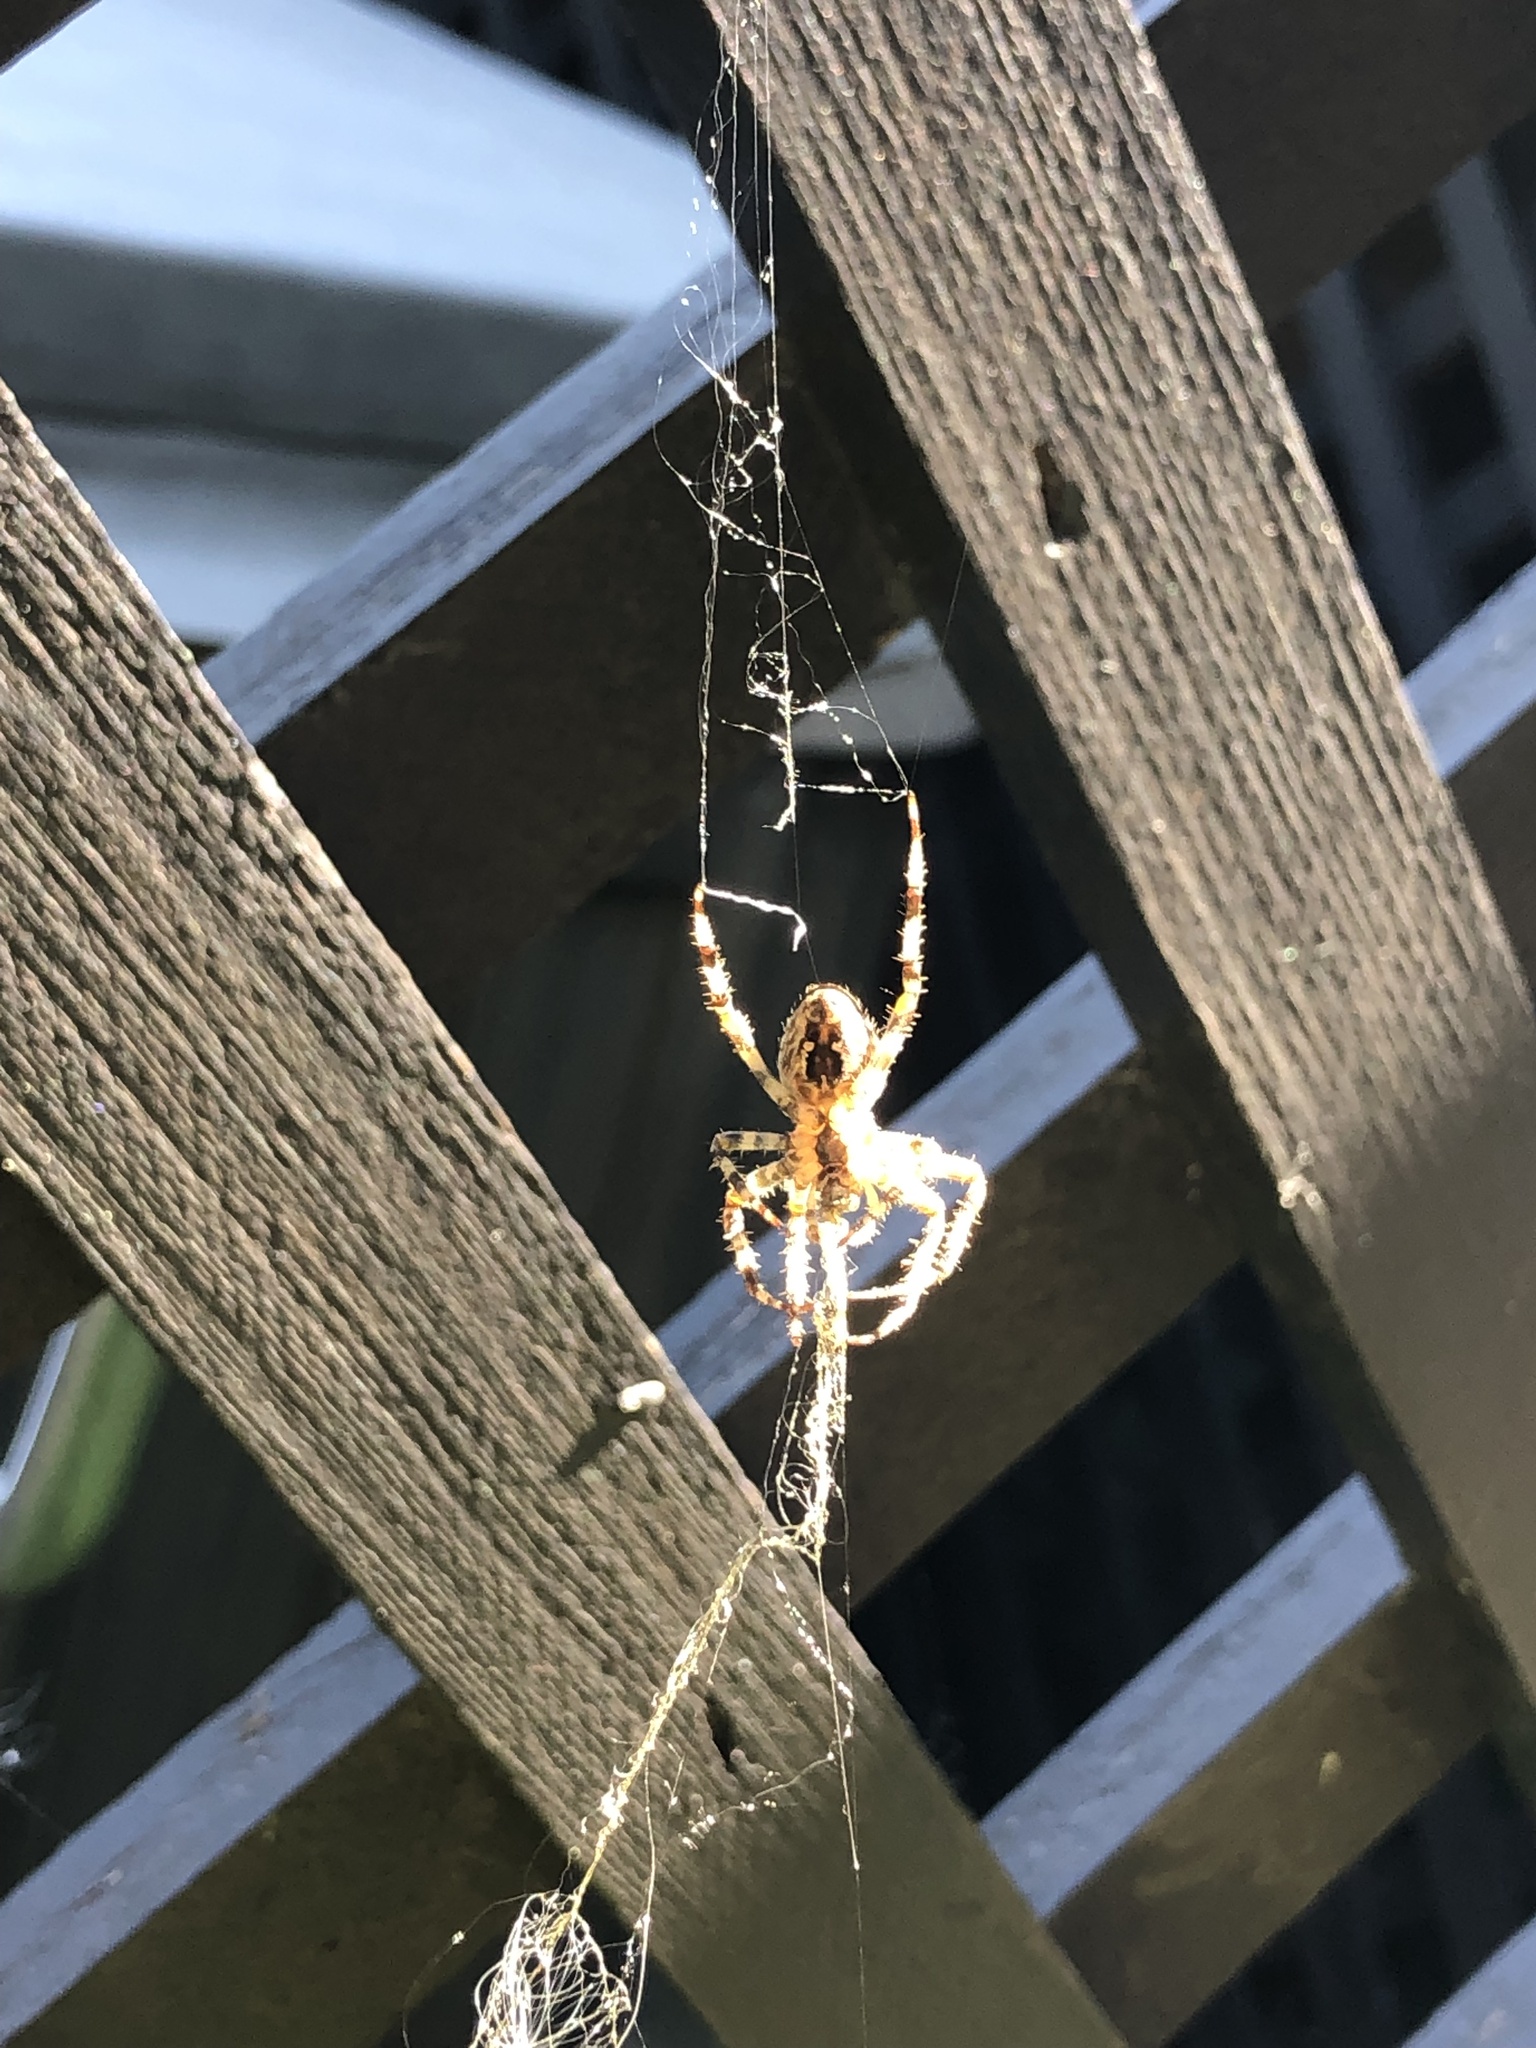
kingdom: Animalia
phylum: Arthropoda
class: Arachnida
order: Araneae
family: Araneidae
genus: Araneus
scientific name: Araneus diadematus
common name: Cross orbweaver
